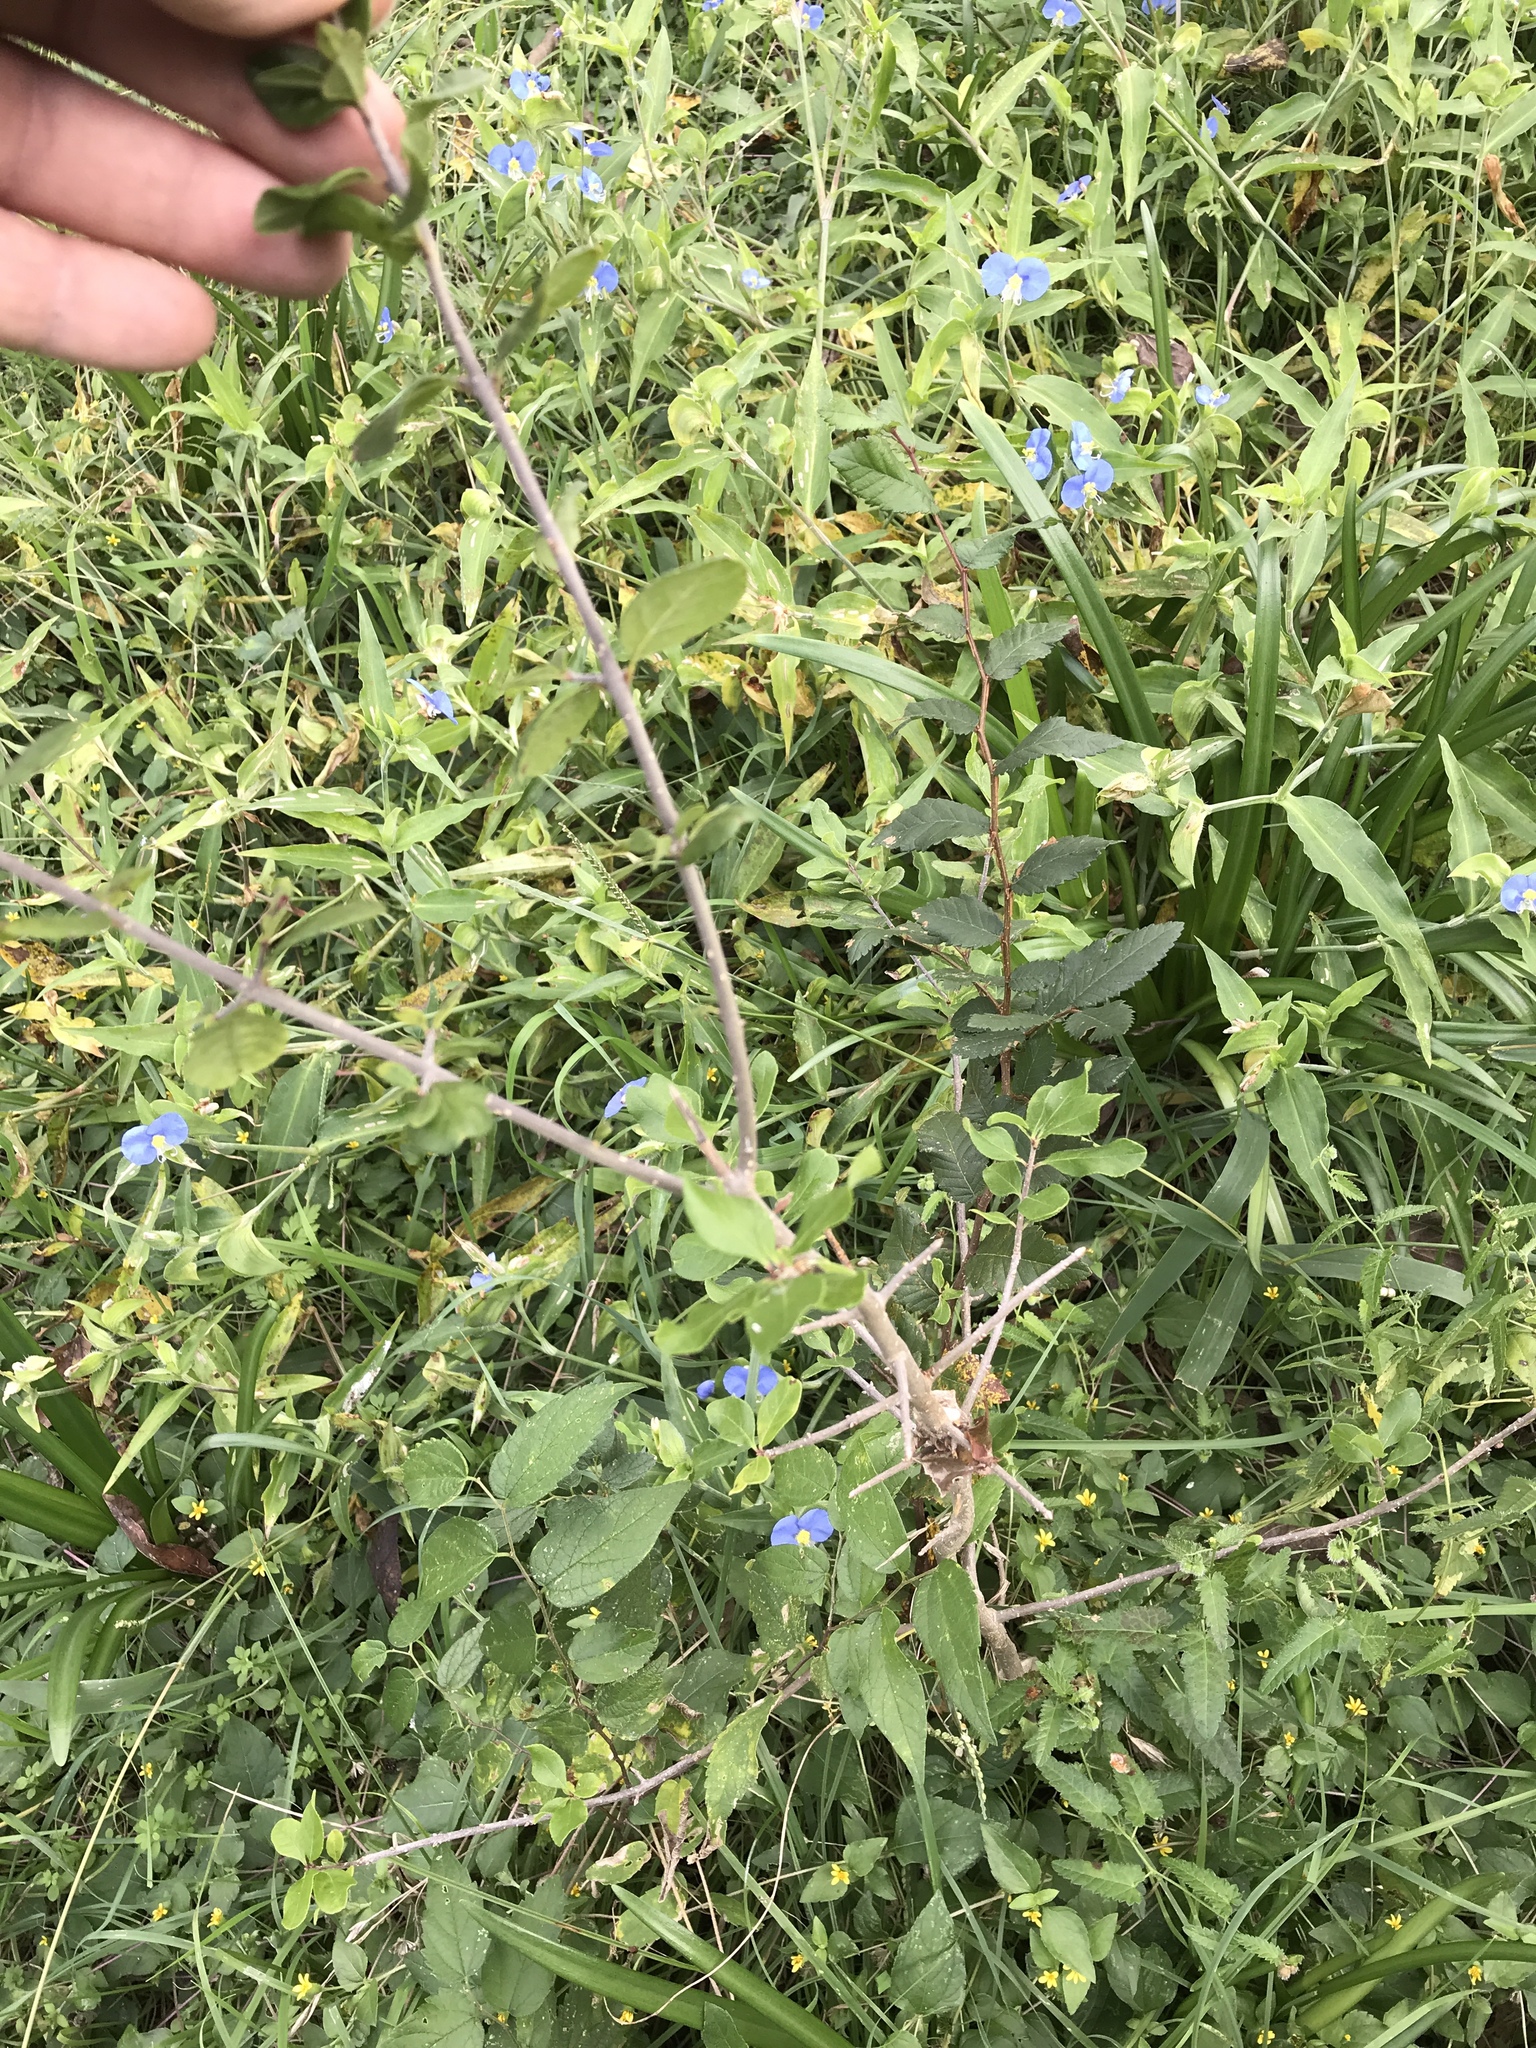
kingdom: Plantae
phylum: Tracheophyta
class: Magnoliopsida
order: Lamiales
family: Oleaceae
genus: Forestiera
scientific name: Forestiera pubescens
